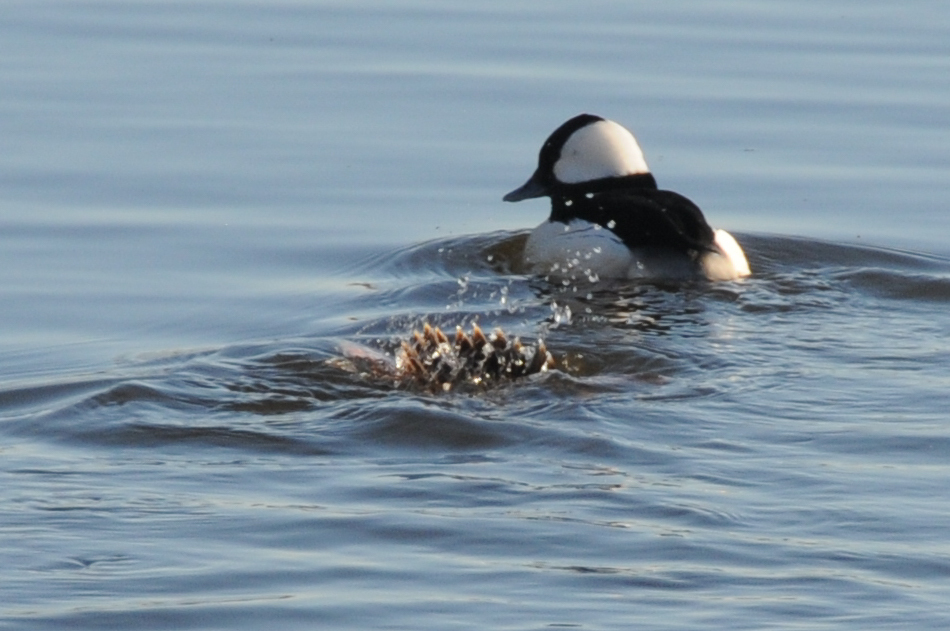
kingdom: Animalia
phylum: Chordata
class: Aves
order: Anseriformes
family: Anatidae
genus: Bucephala
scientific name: Bucephala albeola
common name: Bufflehead
